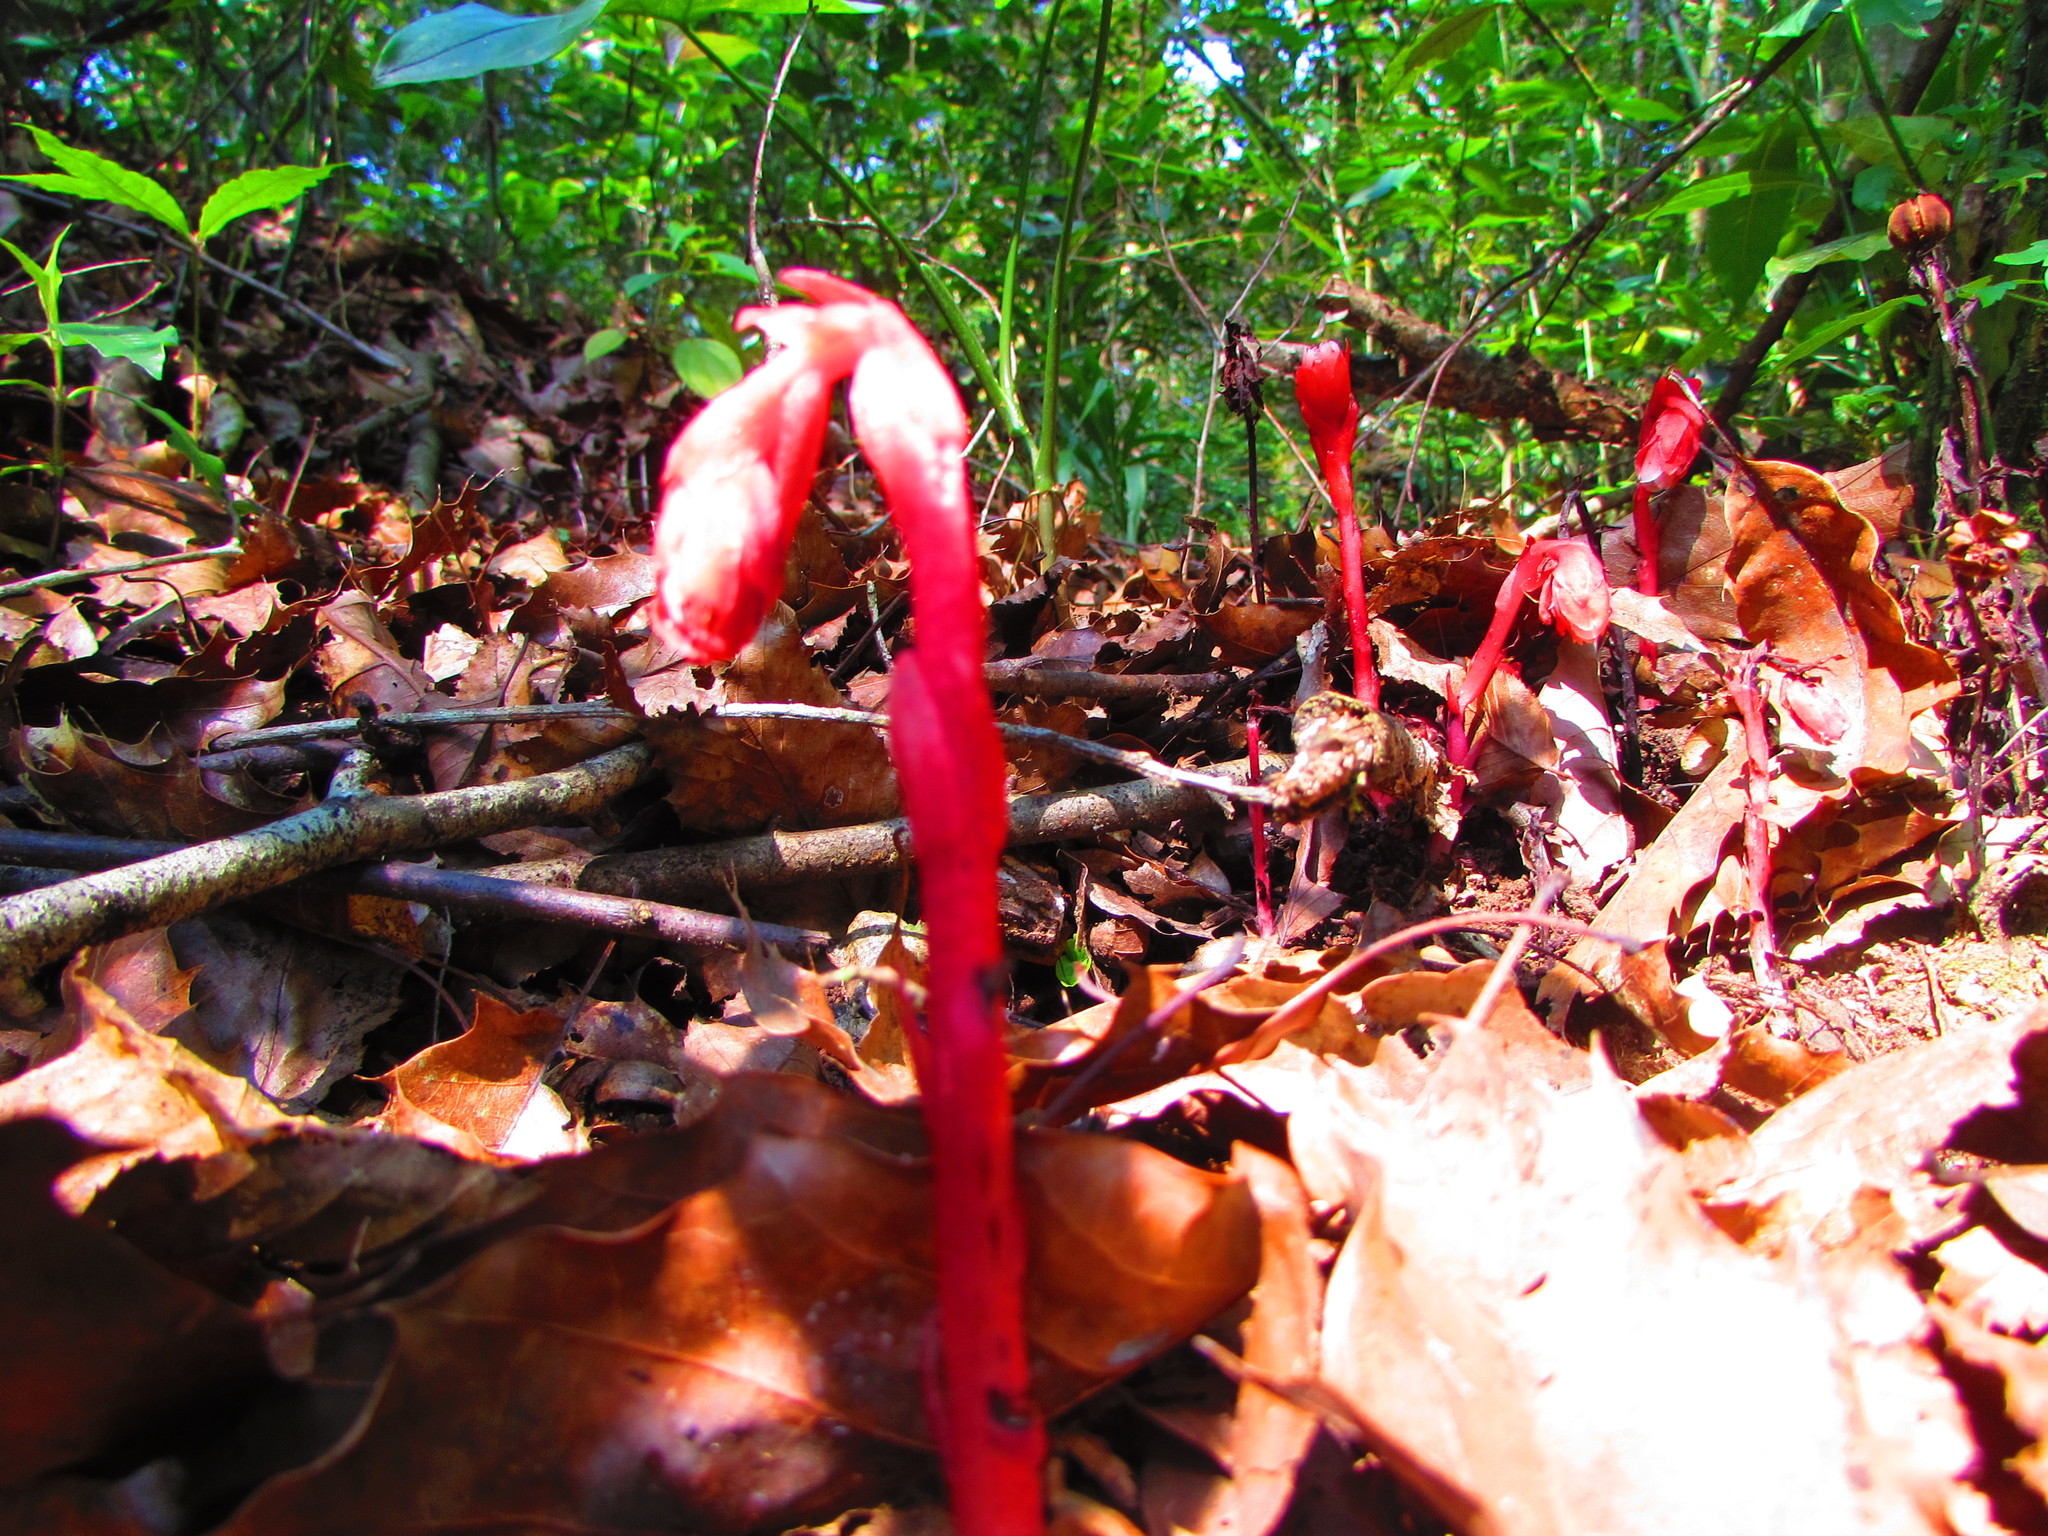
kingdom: Plantae
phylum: Tracheophyta
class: Magnoliopsida
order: Ericales
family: Ericaceae
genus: Monotropa
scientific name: Monotropa coccinea
